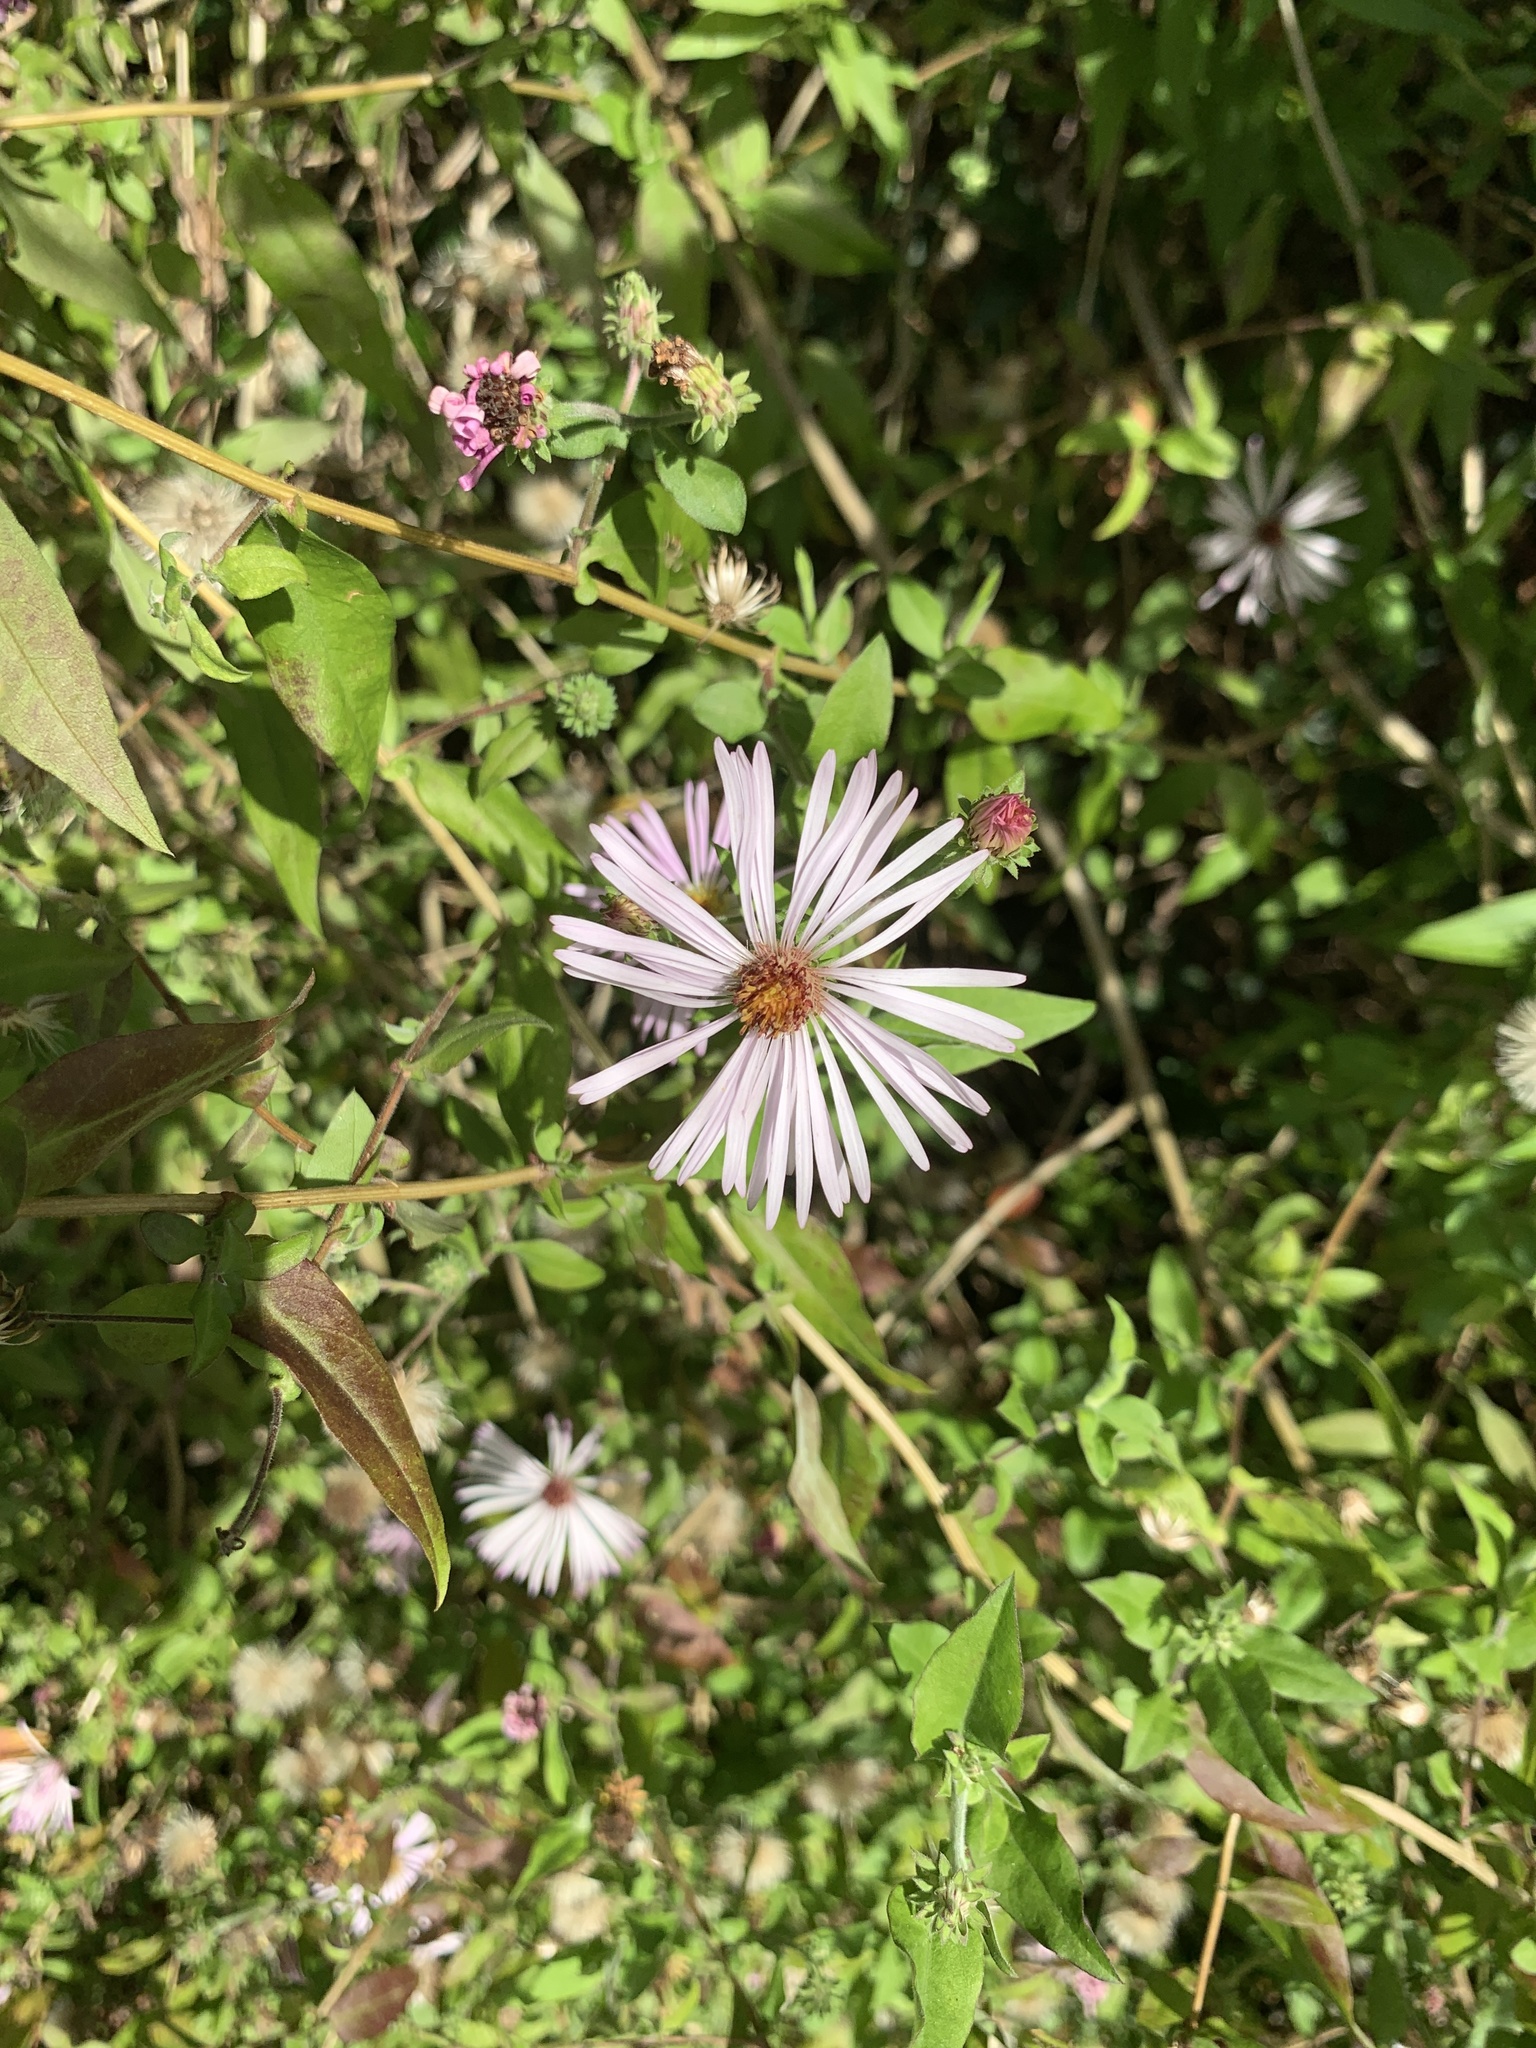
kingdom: Plantae
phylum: Tracheophyta
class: Magnoliopsida
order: Asterales
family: Asteraceae
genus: Ampelaster
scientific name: Ampelaster carolinianus
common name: Climbing aster
